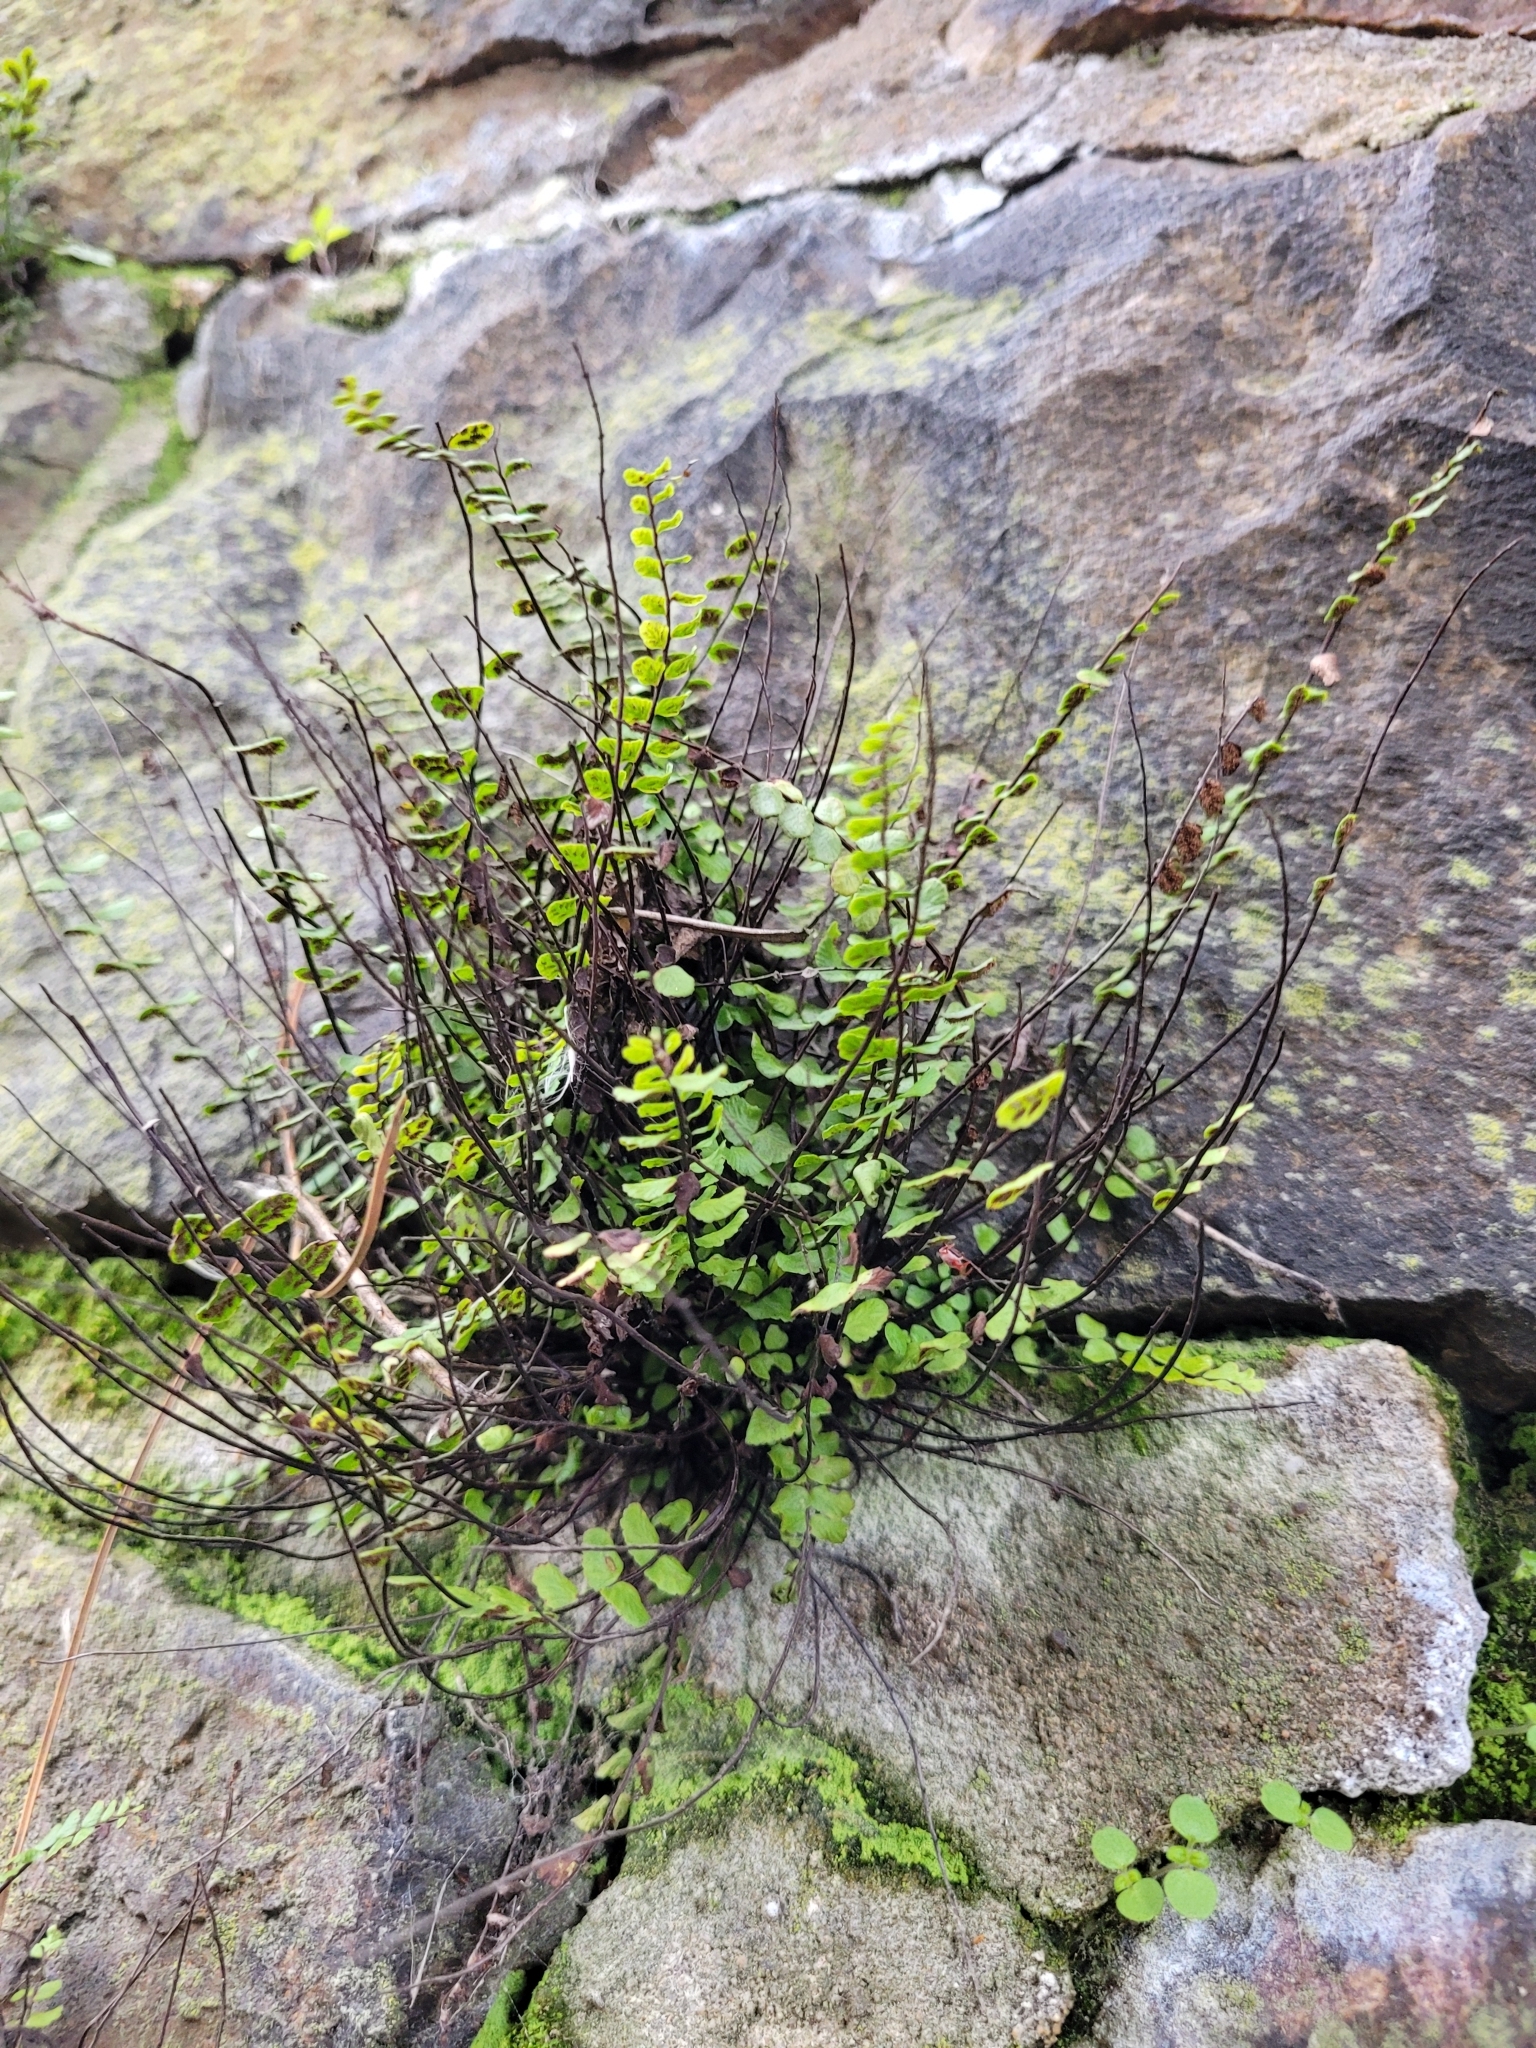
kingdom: Plantae
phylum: Tracheophyta
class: Polypodiopsida
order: Polypodiales
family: Aspleniaceae
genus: Asplenium
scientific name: Asplenium trichomanes
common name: Maidenhair spleenwort
